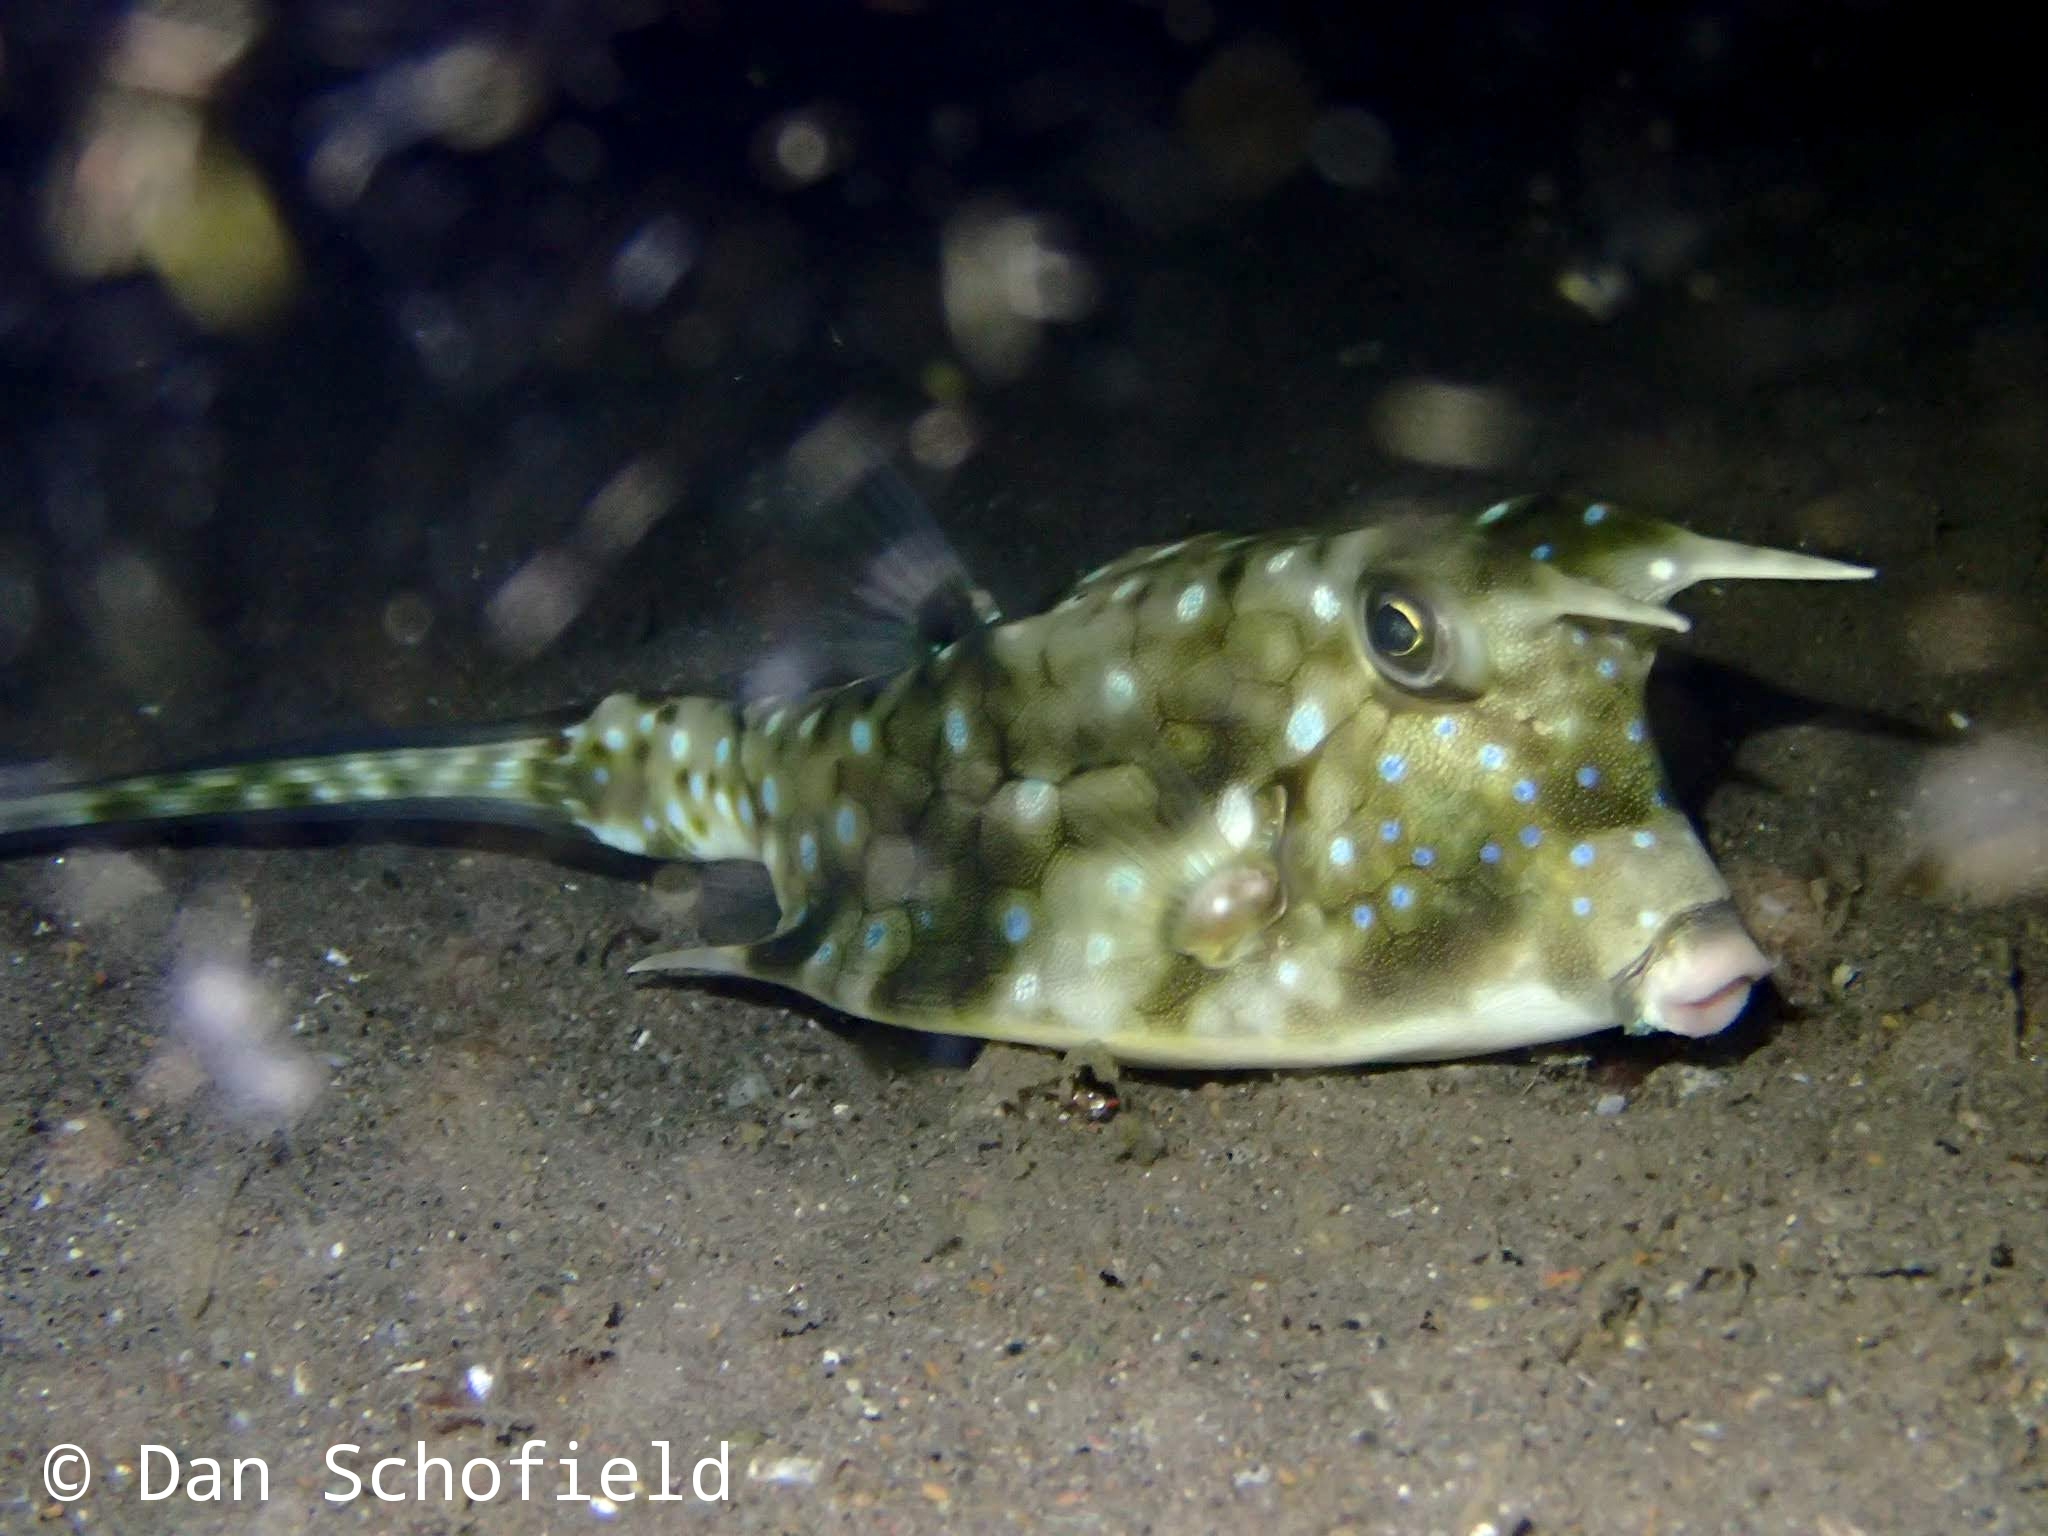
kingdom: Animalia
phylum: Chordata
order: Tetraodontiformes
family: Ostraciidae
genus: Lactoria
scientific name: Lactoria cornuta
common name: Longhorn cowfish
